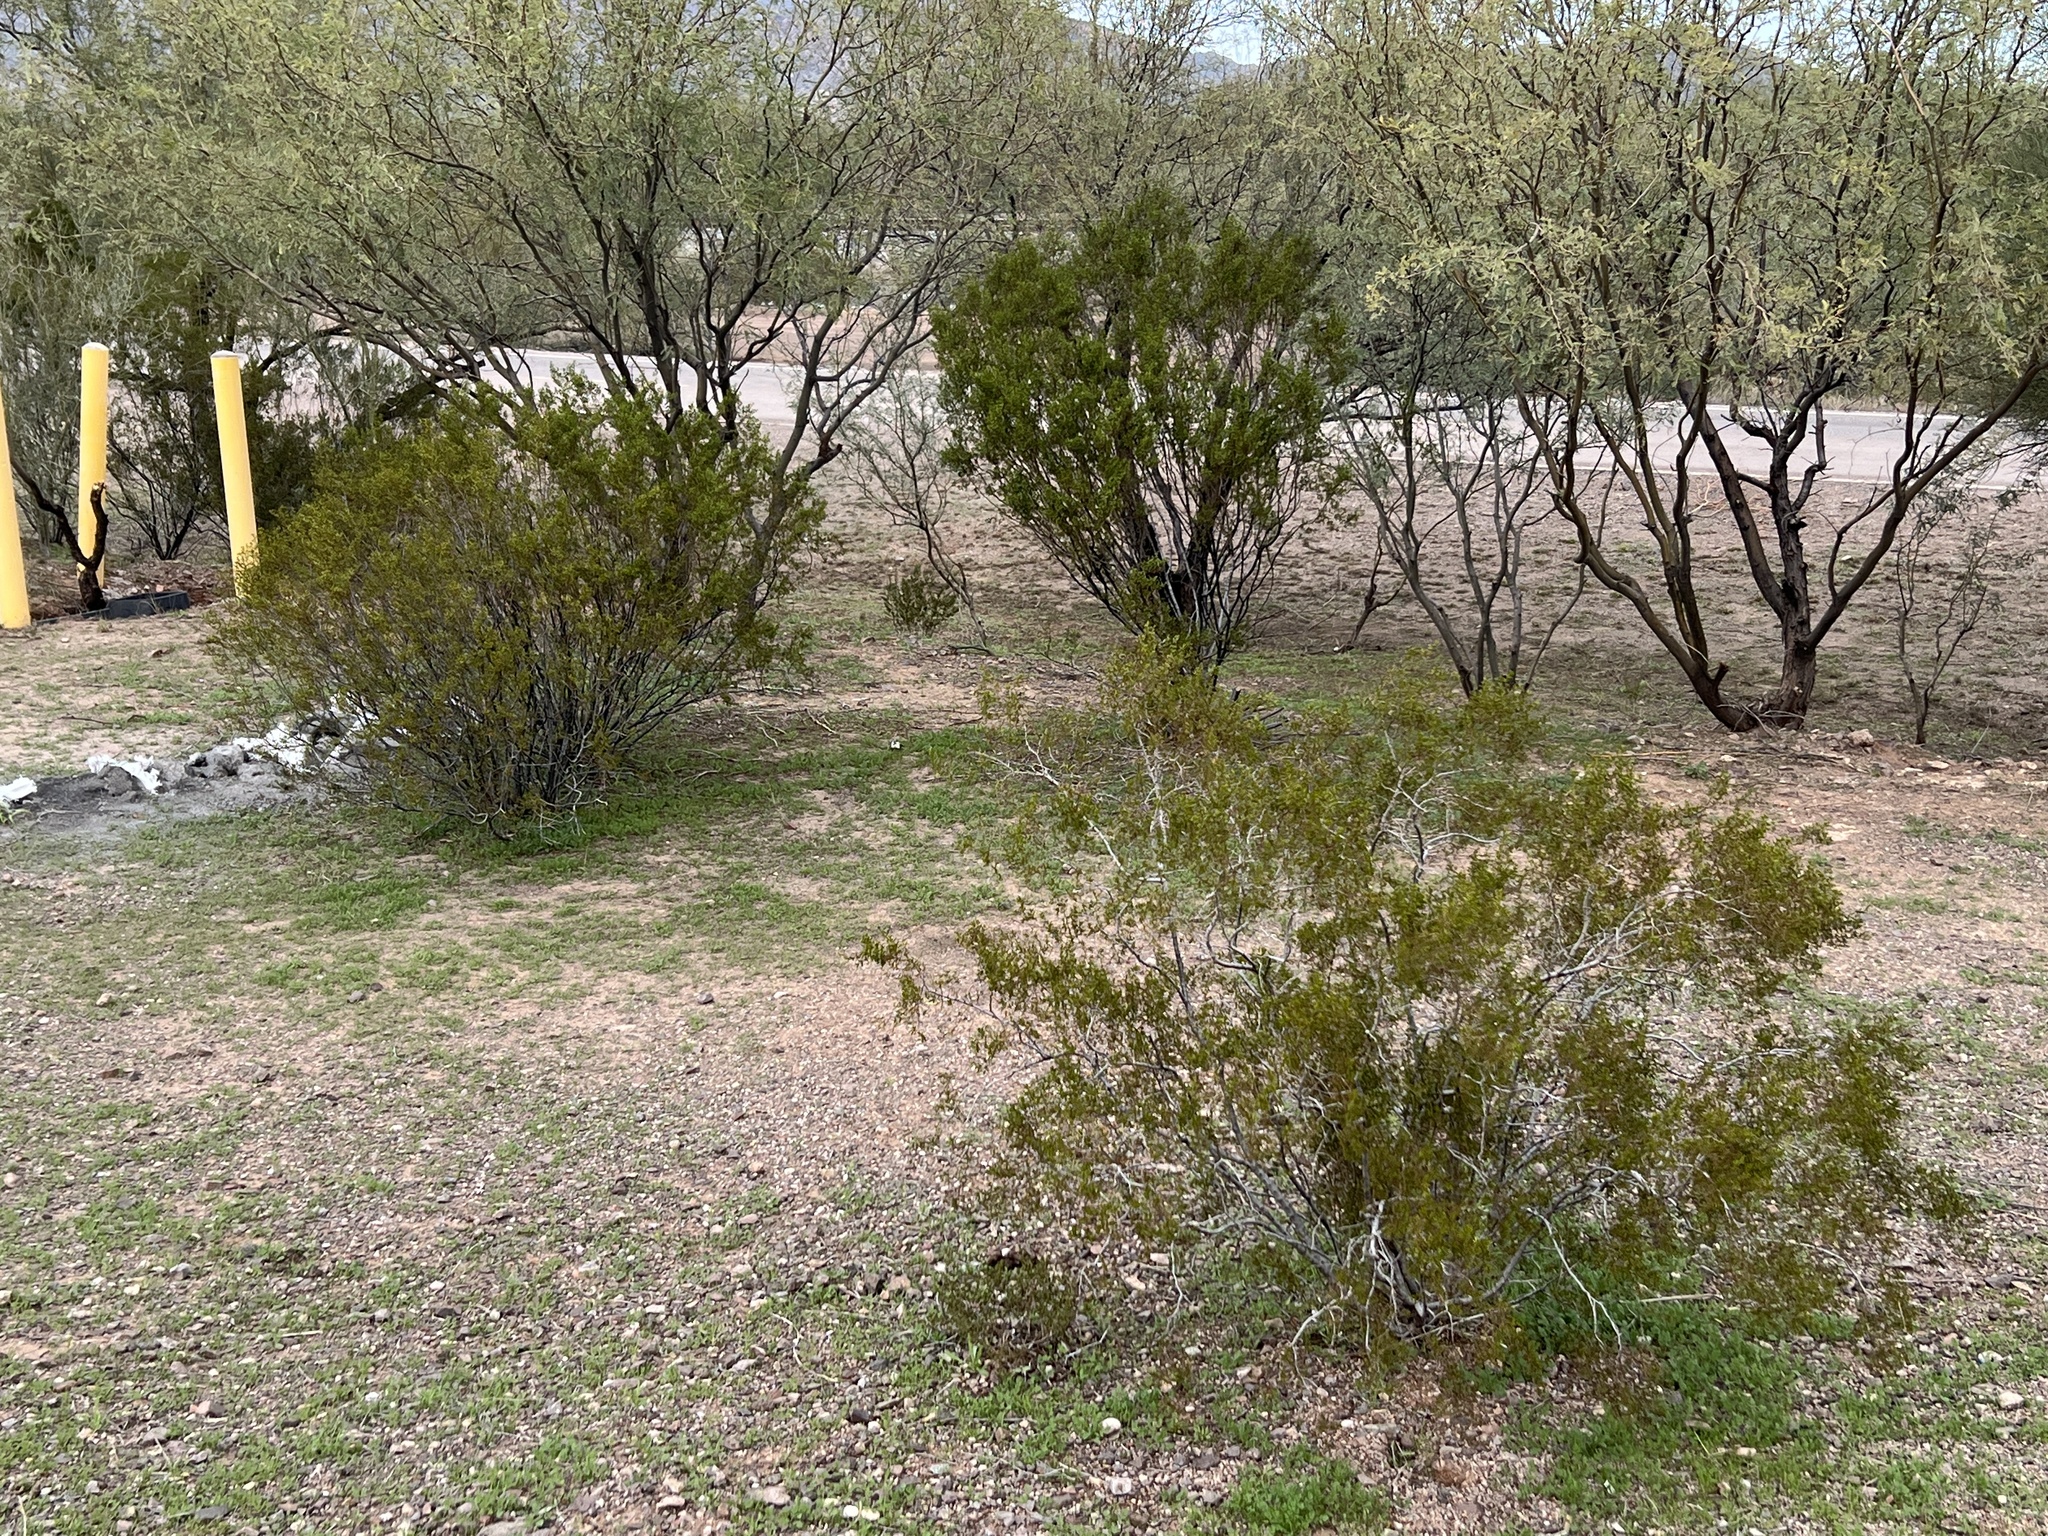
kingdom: Plantae
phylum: Tracheophyta
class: Magnoliopsida
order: Zygophyllales
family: Zygophyllaceae
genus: Larrea
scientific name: Larrea tridentata
